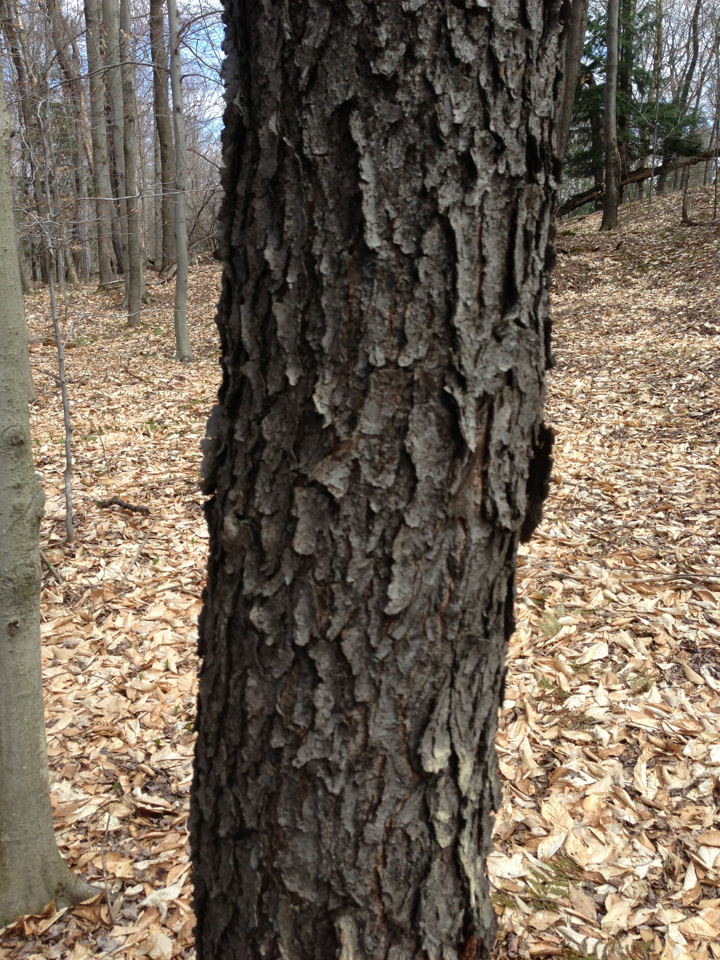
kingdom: Plantae
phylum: Tracheophyta
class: Magnoliopsida
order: Rosales
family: Rosaceae
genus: Prunus
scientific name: Prunus serotina
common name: Black cherry
